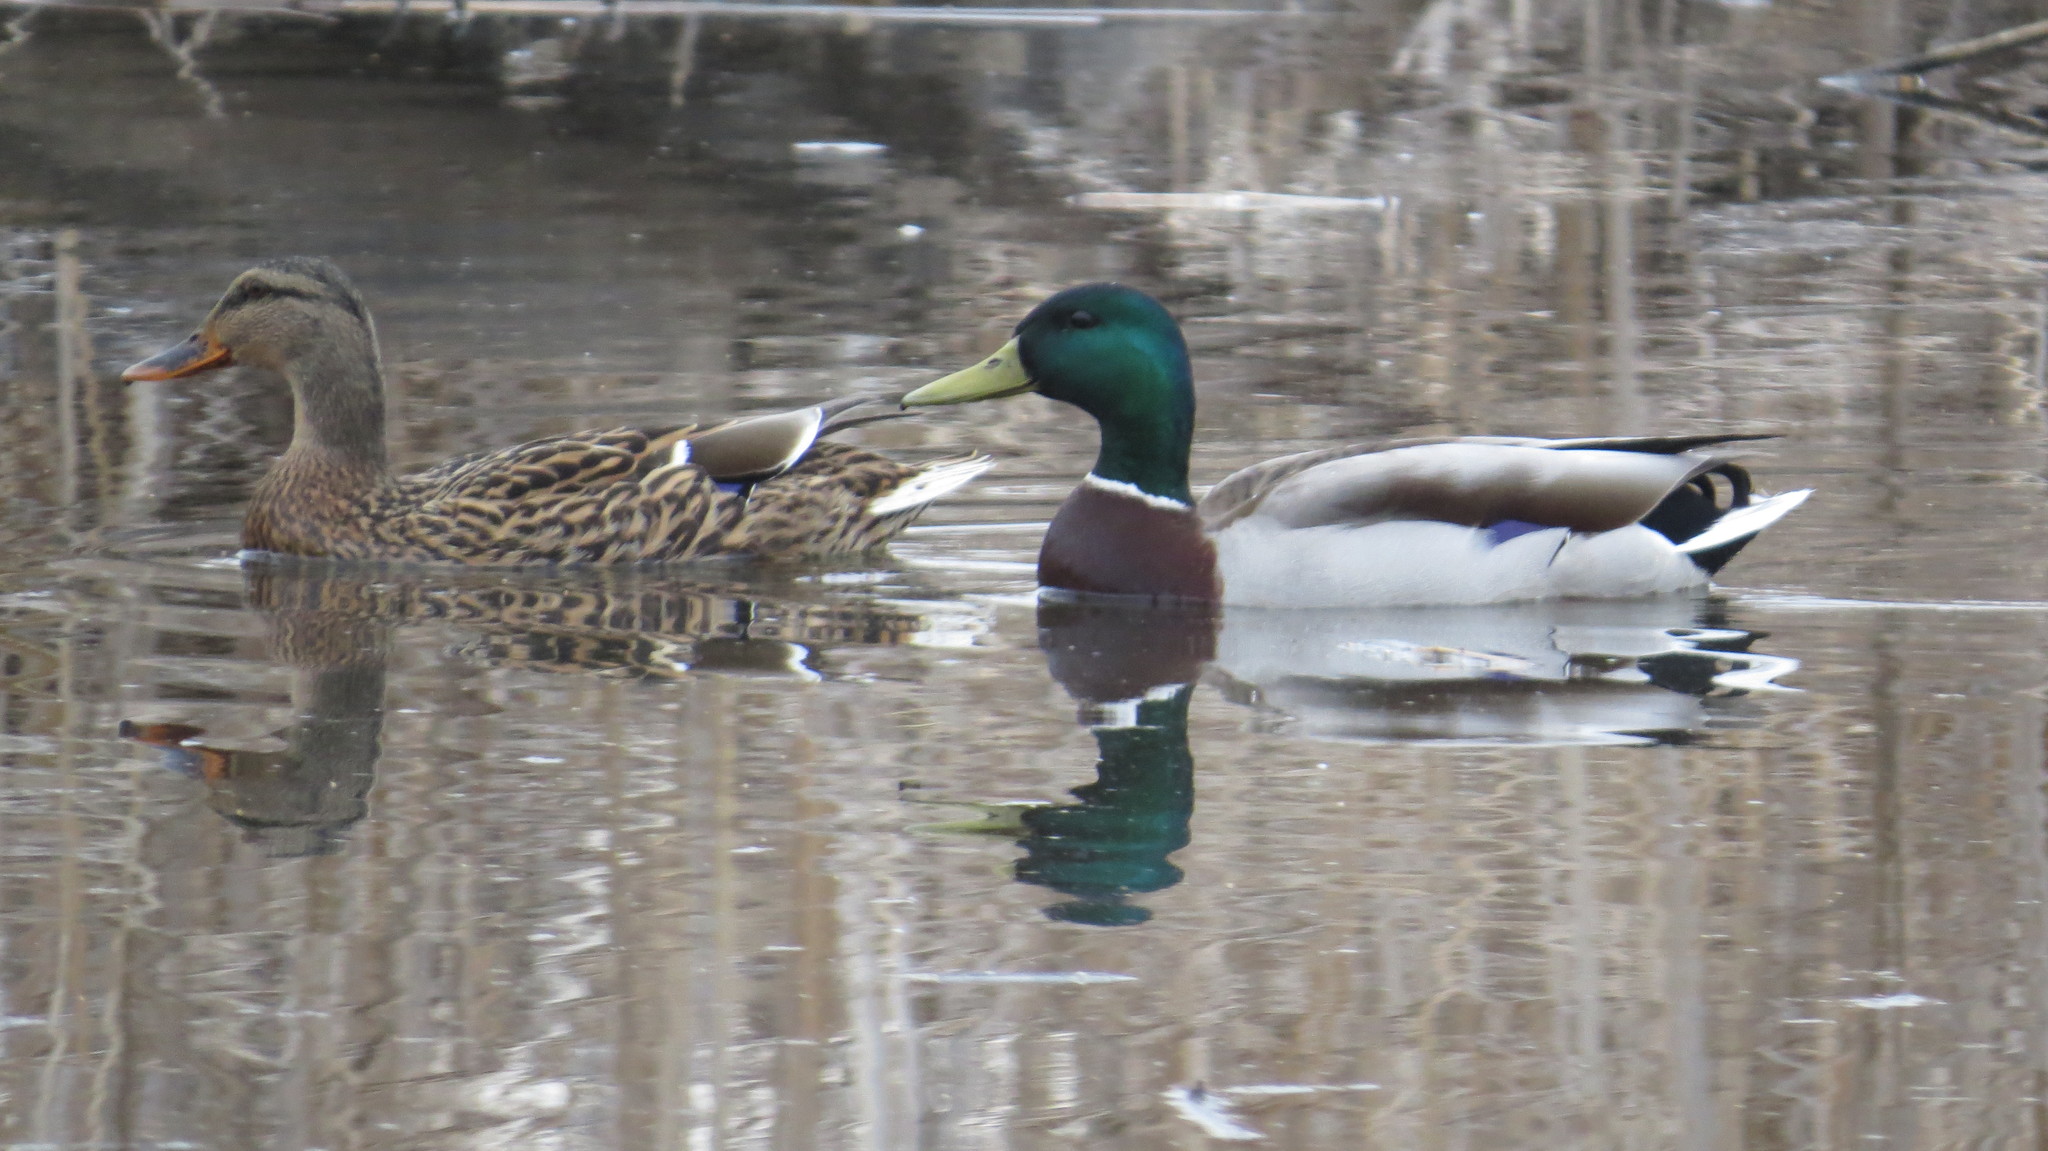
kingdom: Animalia
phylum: Chordata
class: Aves
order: Anseriformes
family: Anatidae
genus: Anas
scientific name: Anas platyrhynchos
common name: Mallard
